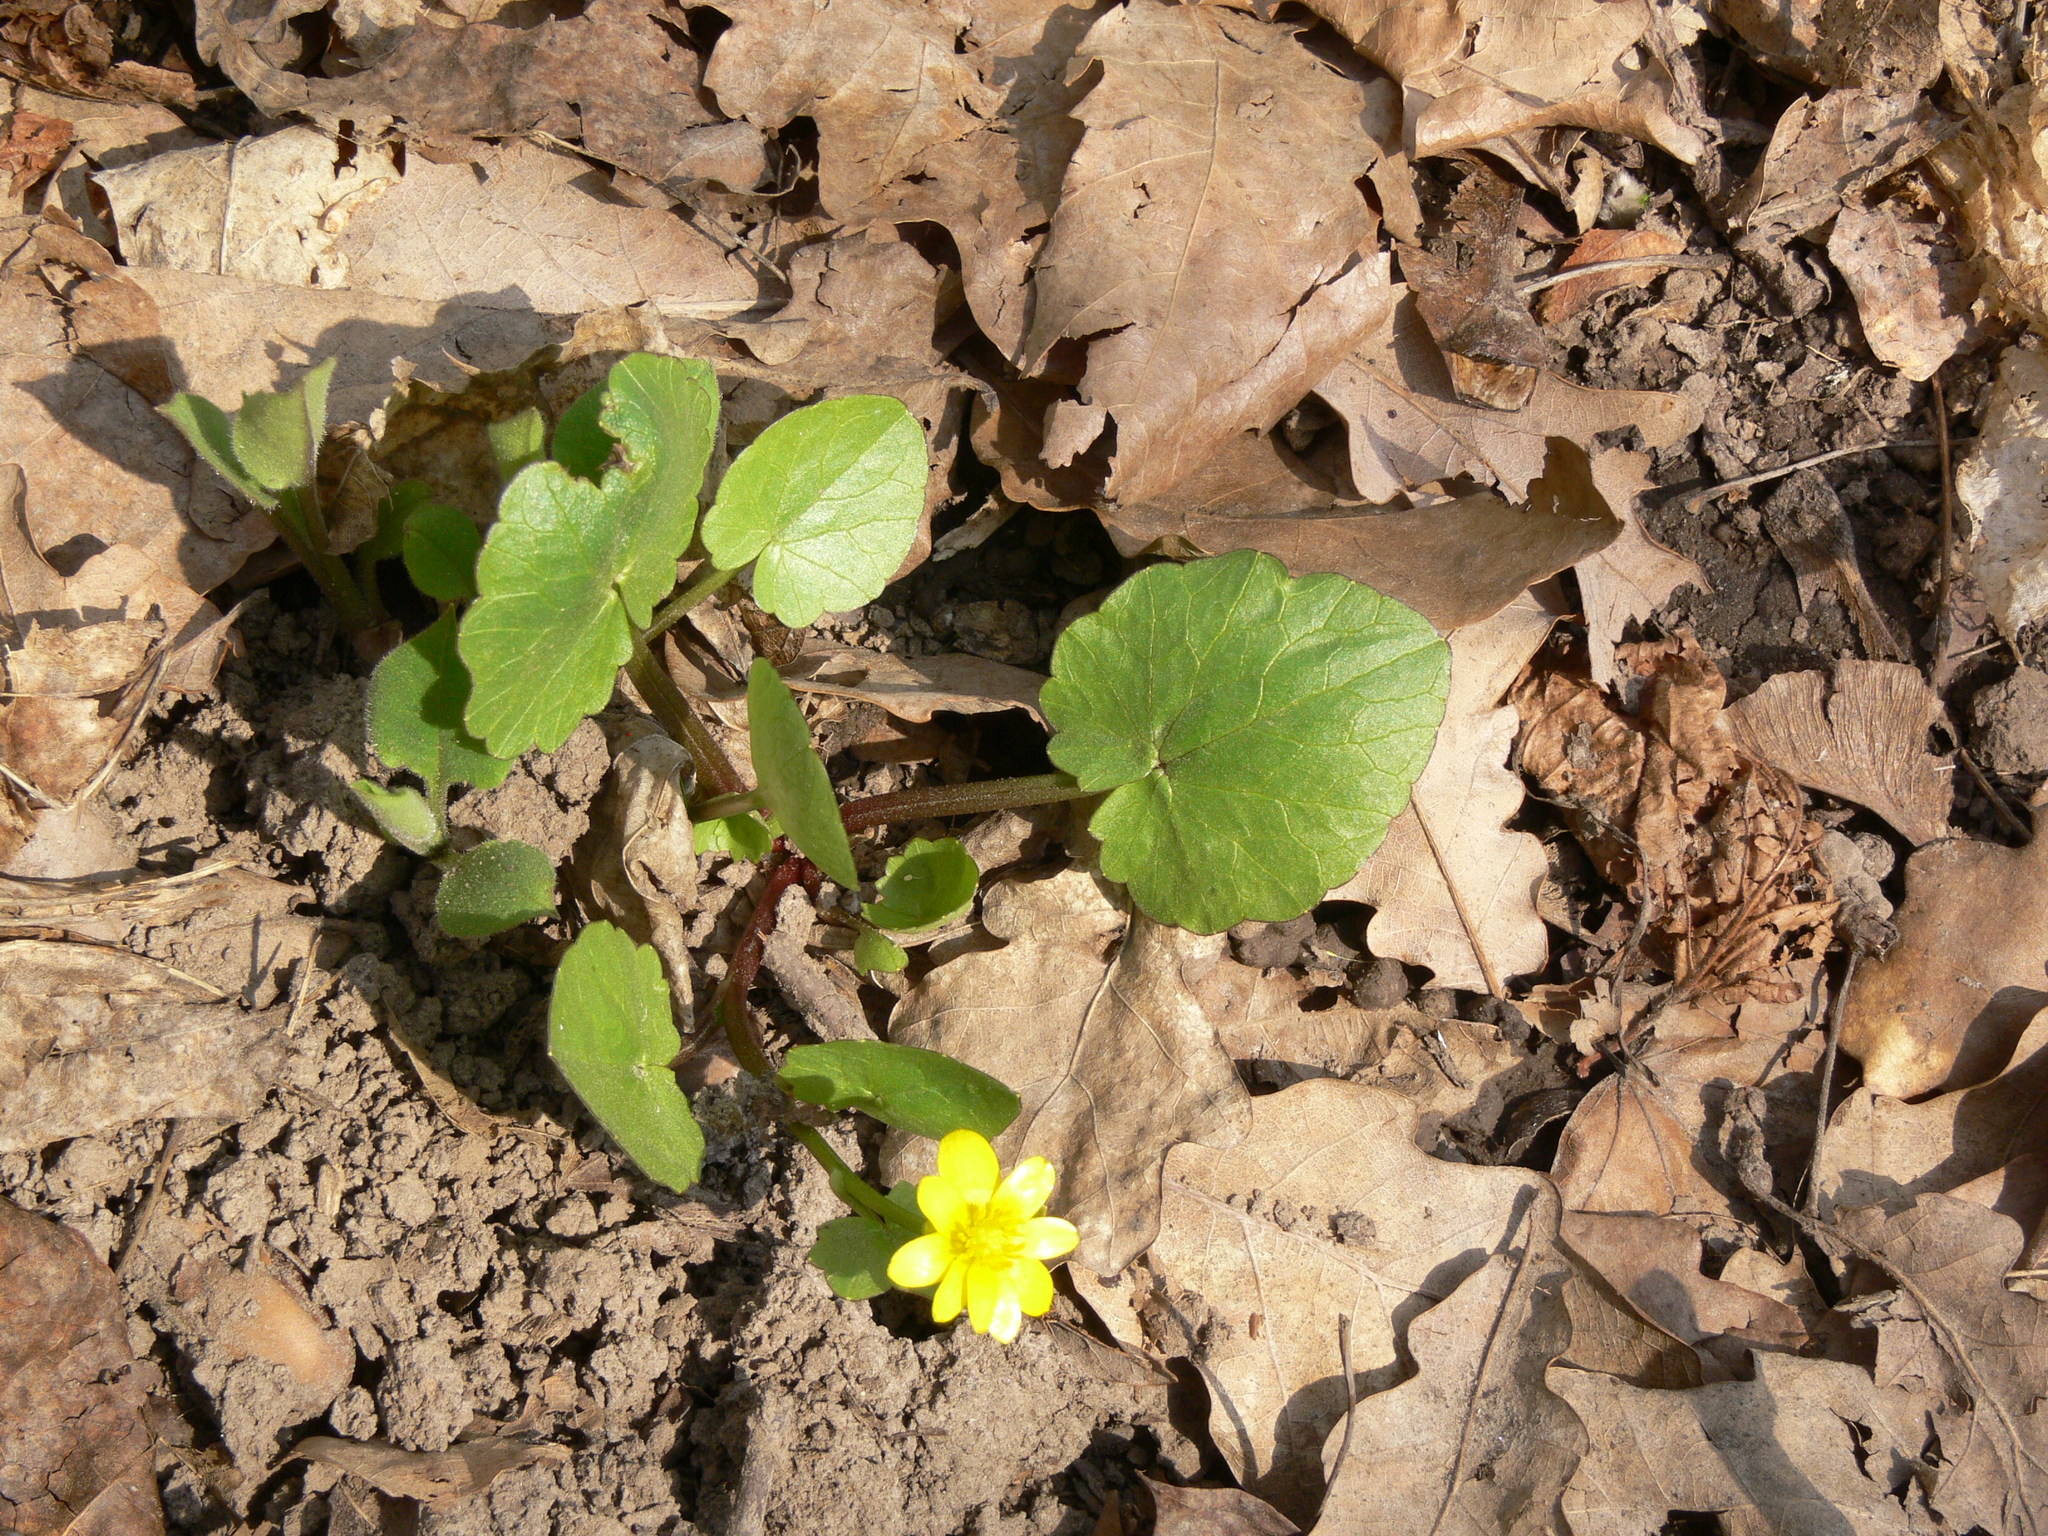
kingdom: Plantae
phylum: Tracheophyta
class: Magnoliopsida
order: Ranunculales
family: Ranunculaceae
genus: Ficaria
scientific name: Ficaria verna
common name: Lesser celandine
